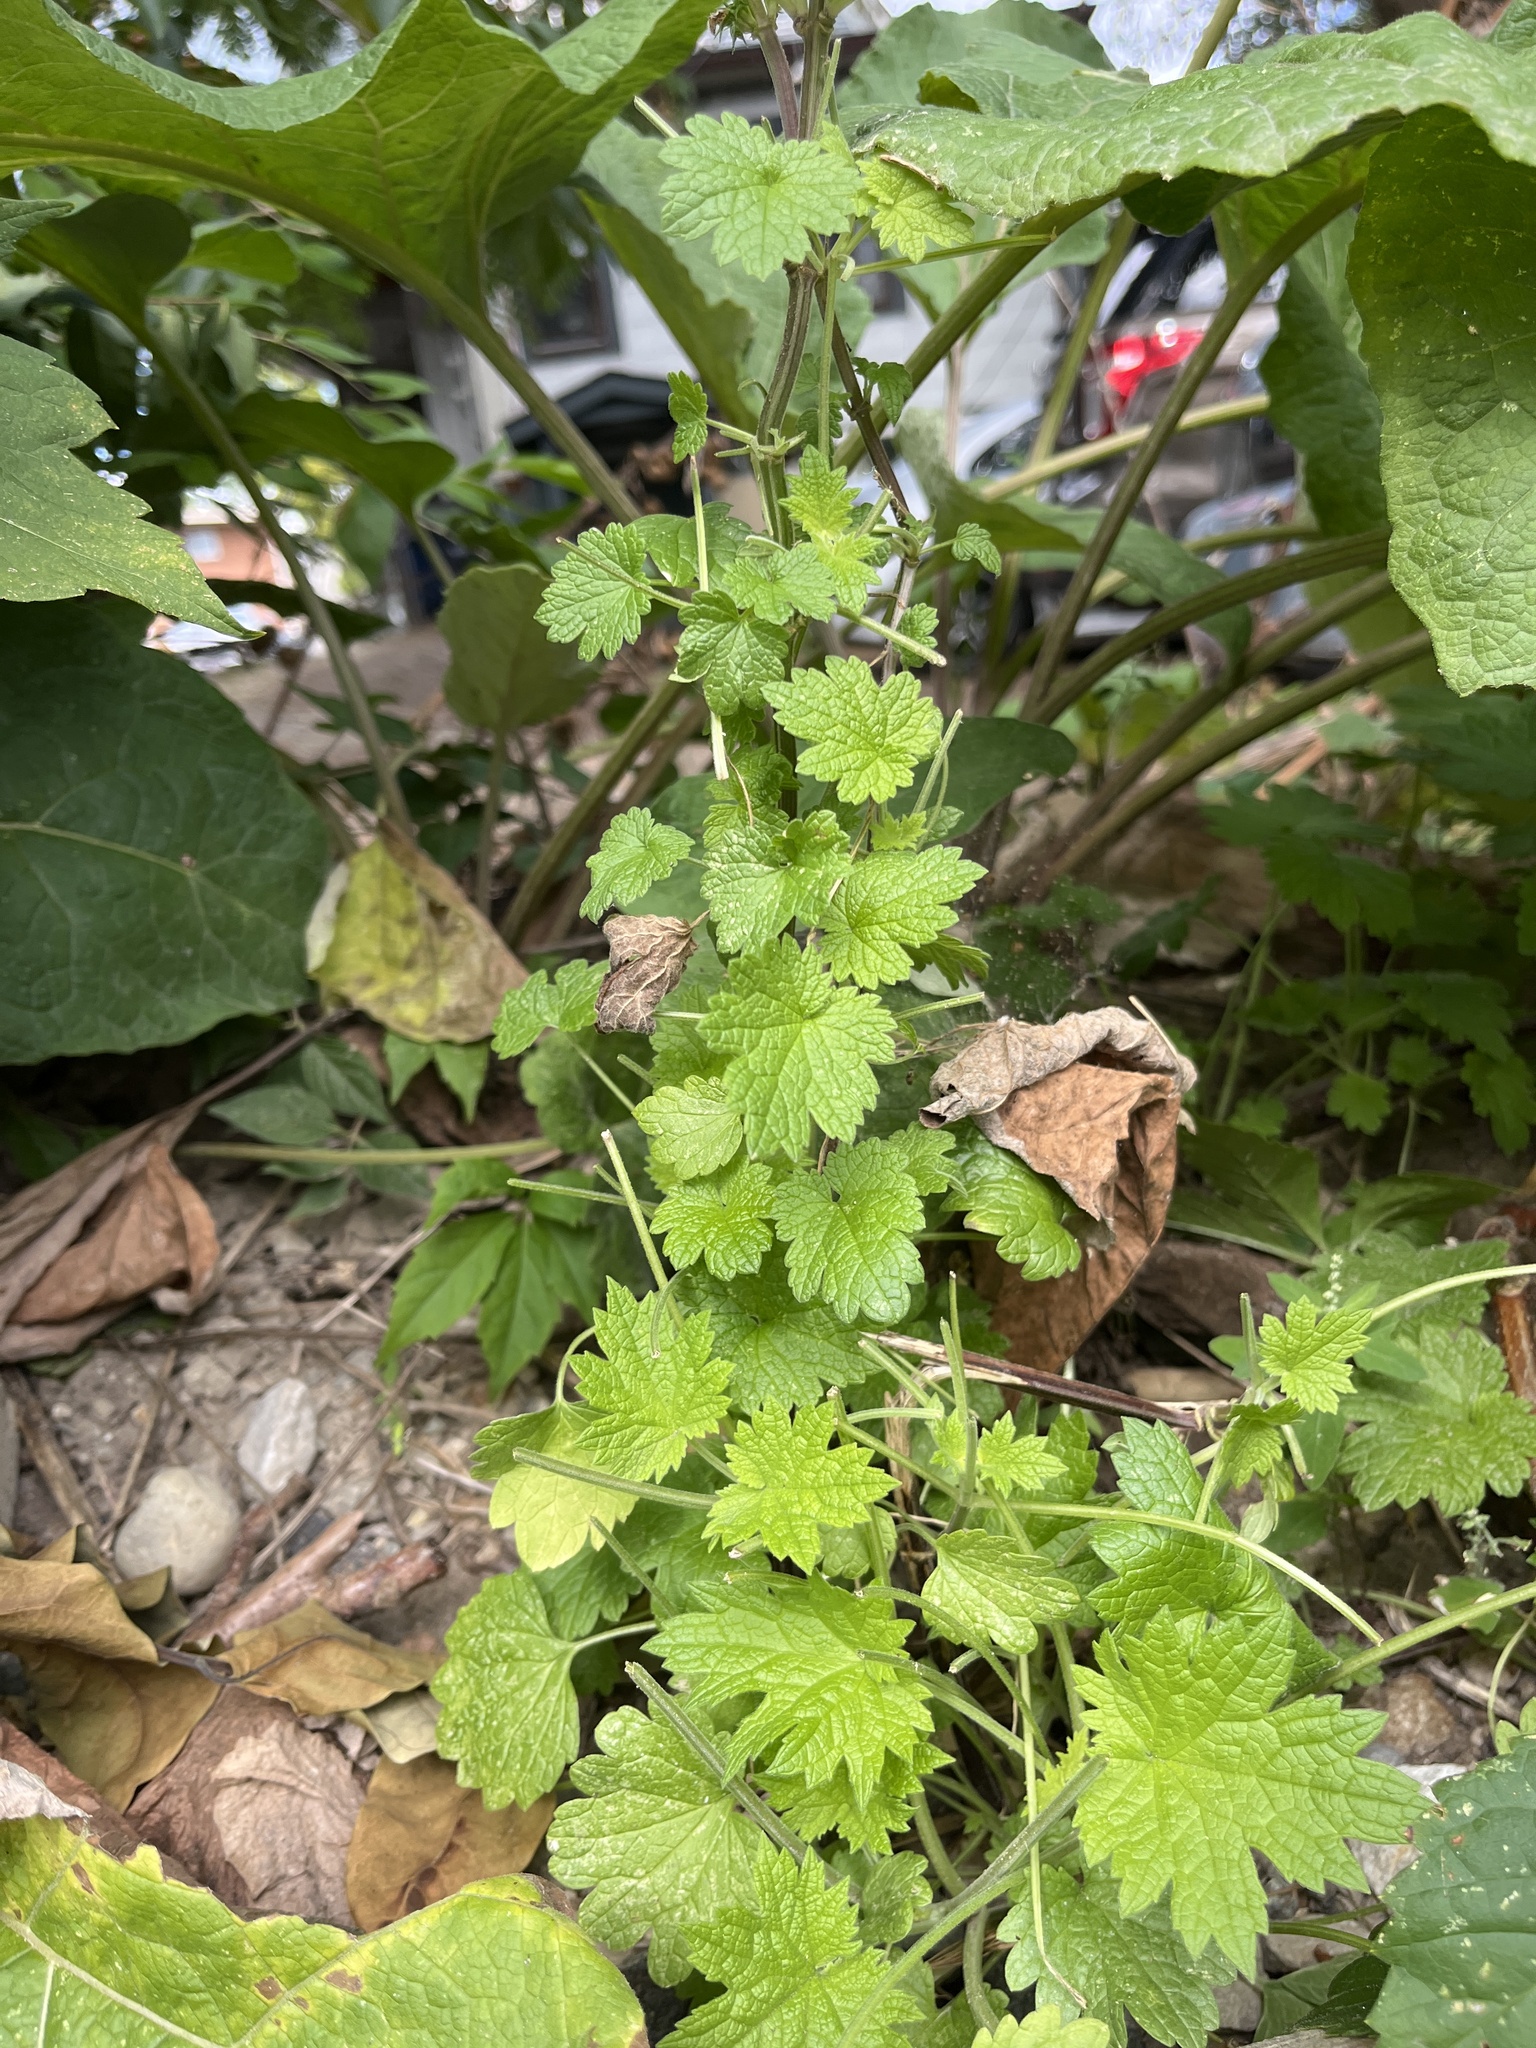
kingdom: Plantae
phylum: Tracheophyta
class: Magnoliopsida
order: Lamiales
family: Lamiaceae
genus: Leonurus
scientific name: Leonurus cardiaca
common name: Motherwort
